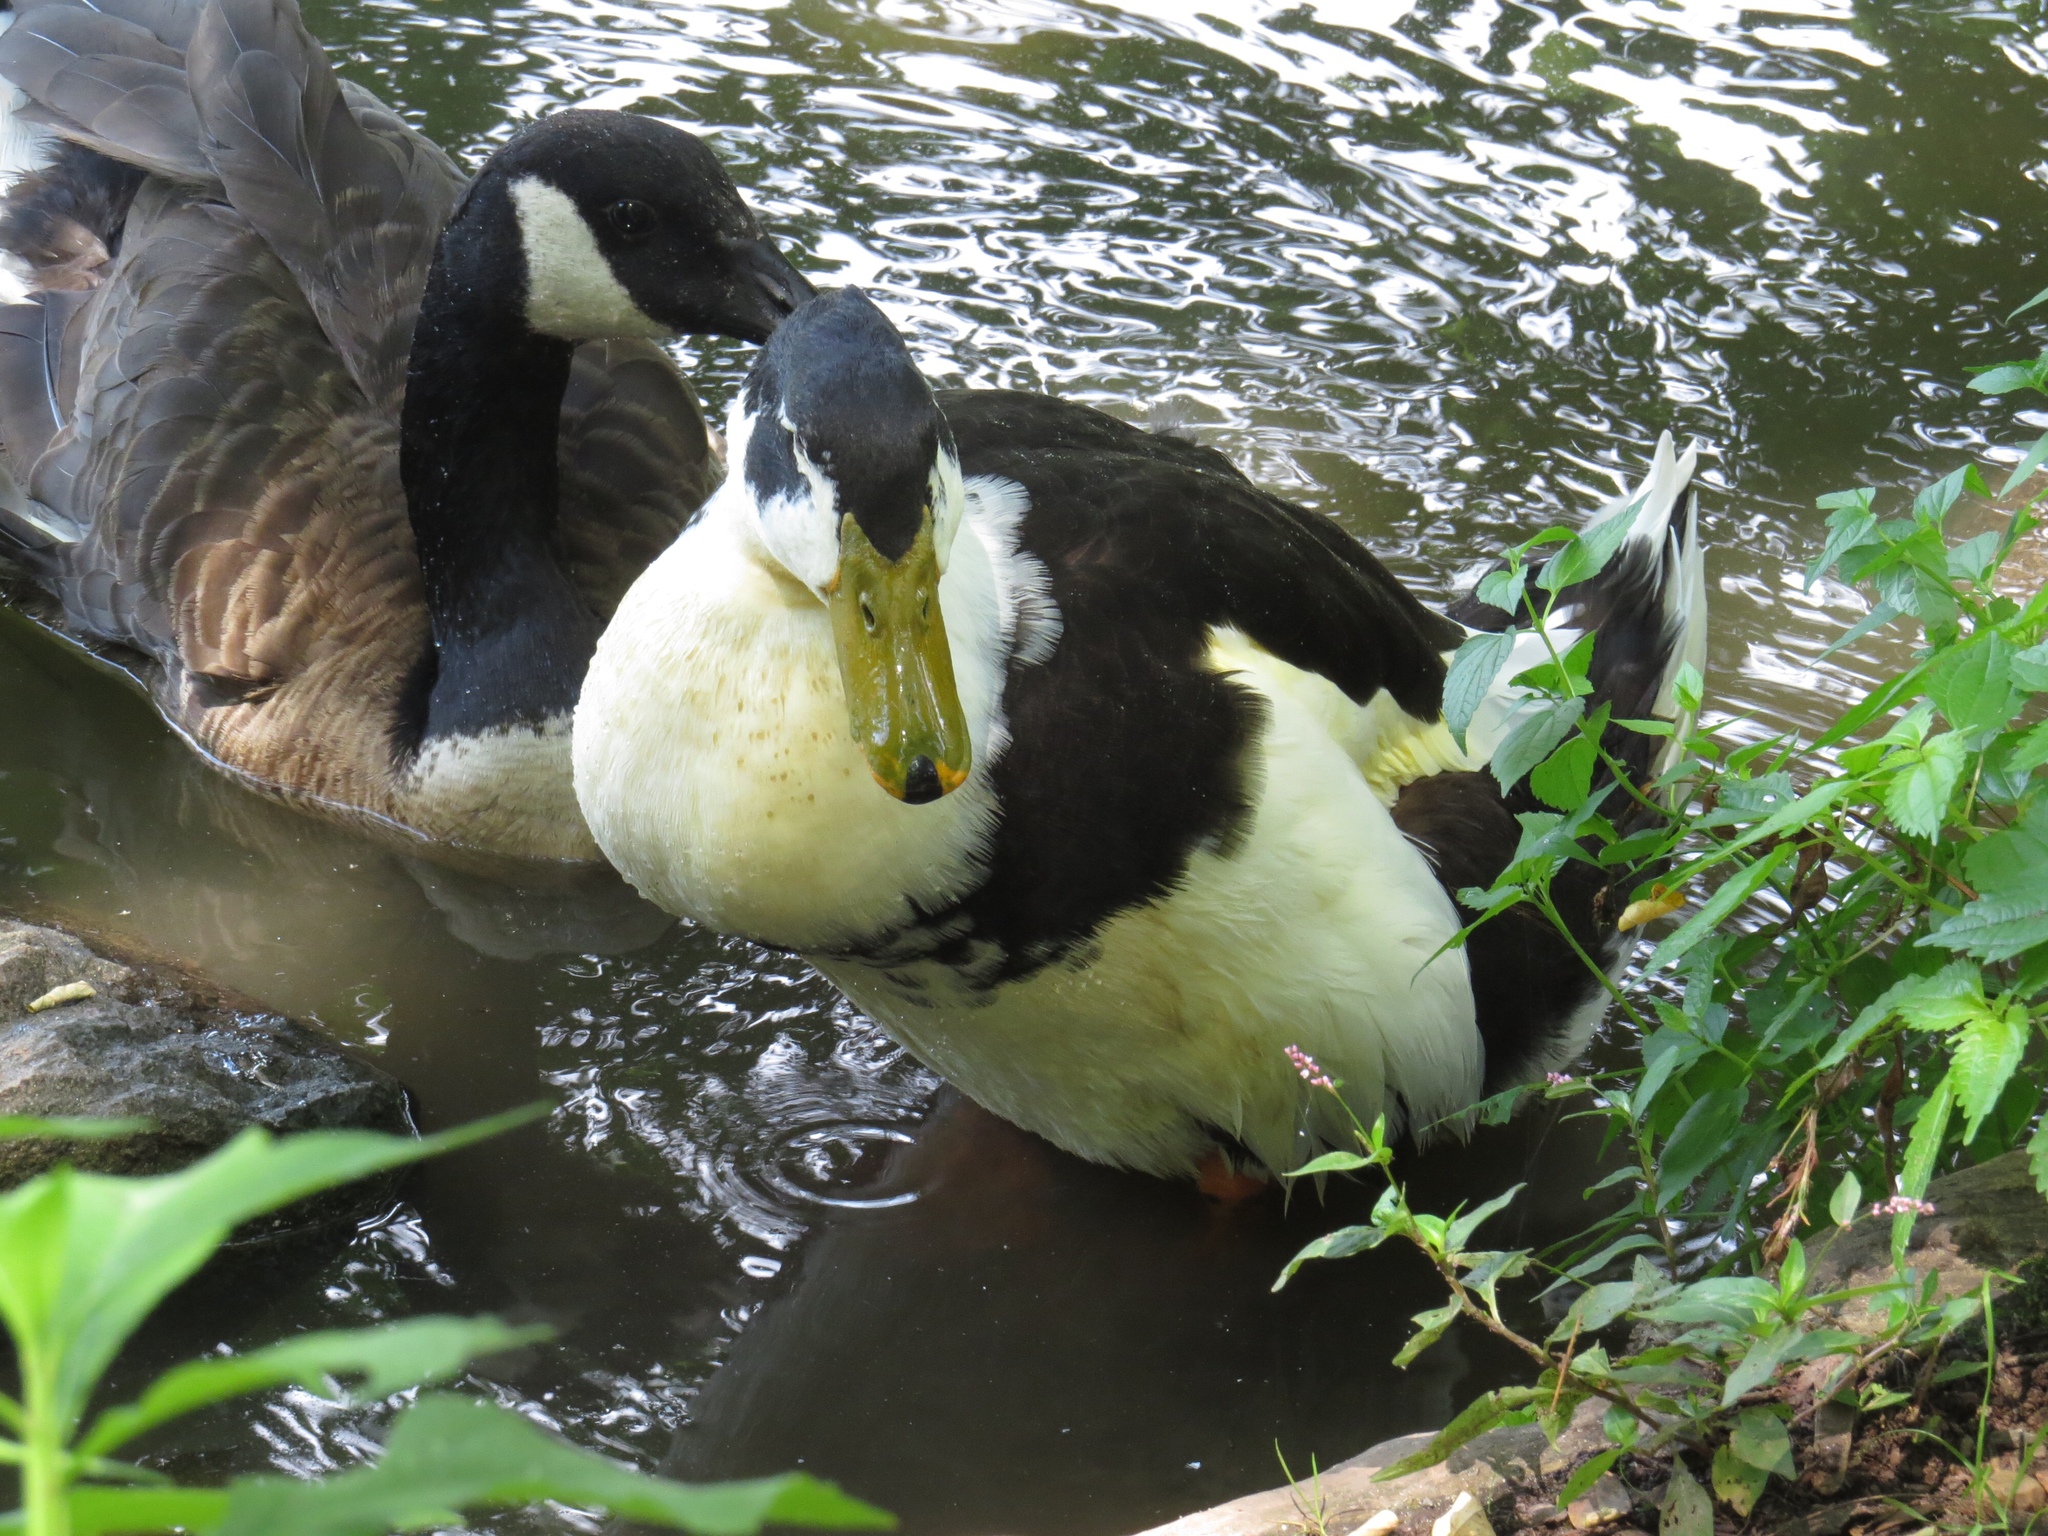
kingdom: Animalia
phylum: Chordata
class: Aves
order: Anseriformes
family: Anatidae
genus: Anas
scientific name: Anas platyrhynchos
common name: Mallard
